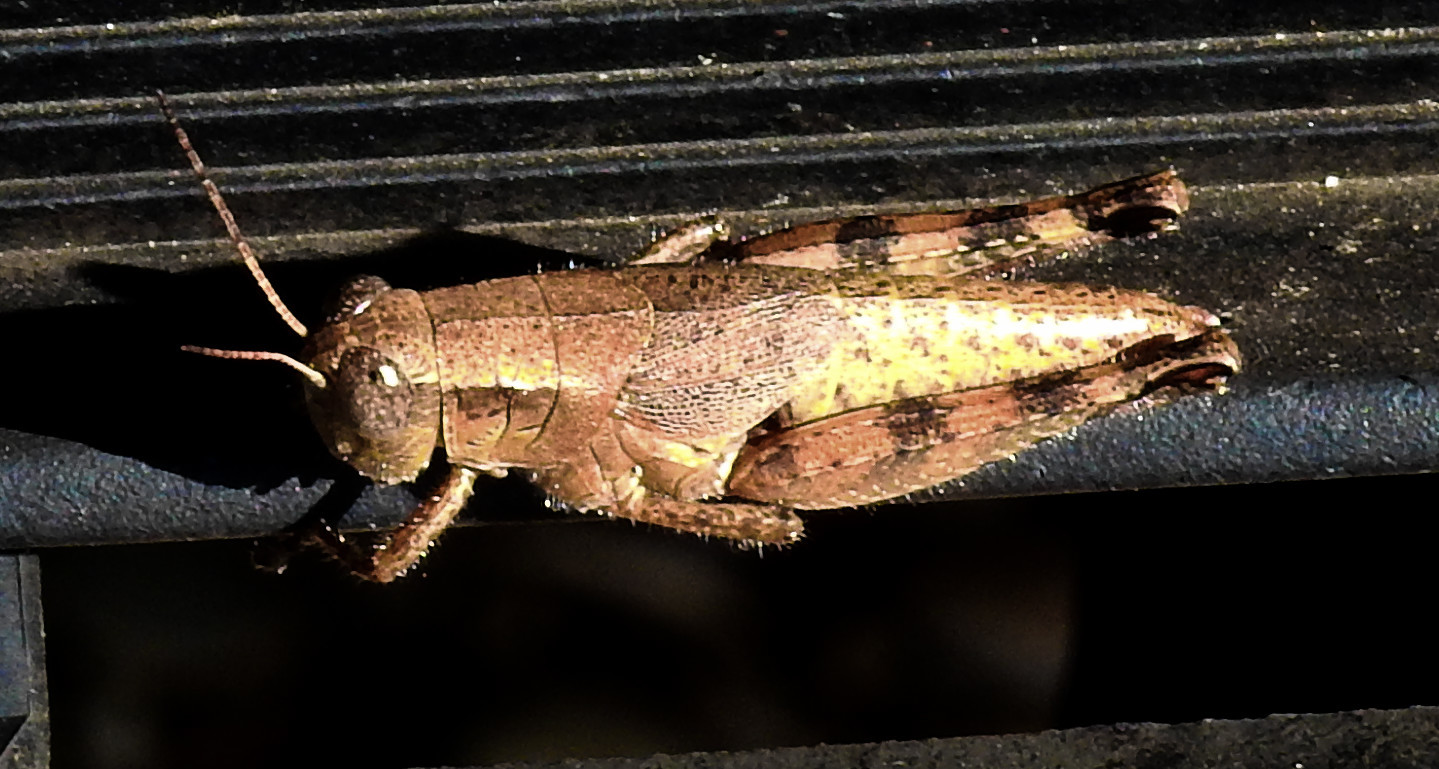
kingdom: Animalia
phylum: Arthropoda
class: Insecta
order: Orthoptera
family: Acrididae
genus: Melanoplus
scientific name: Melanoplus scudderi
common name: Scudder's short-winged locust
